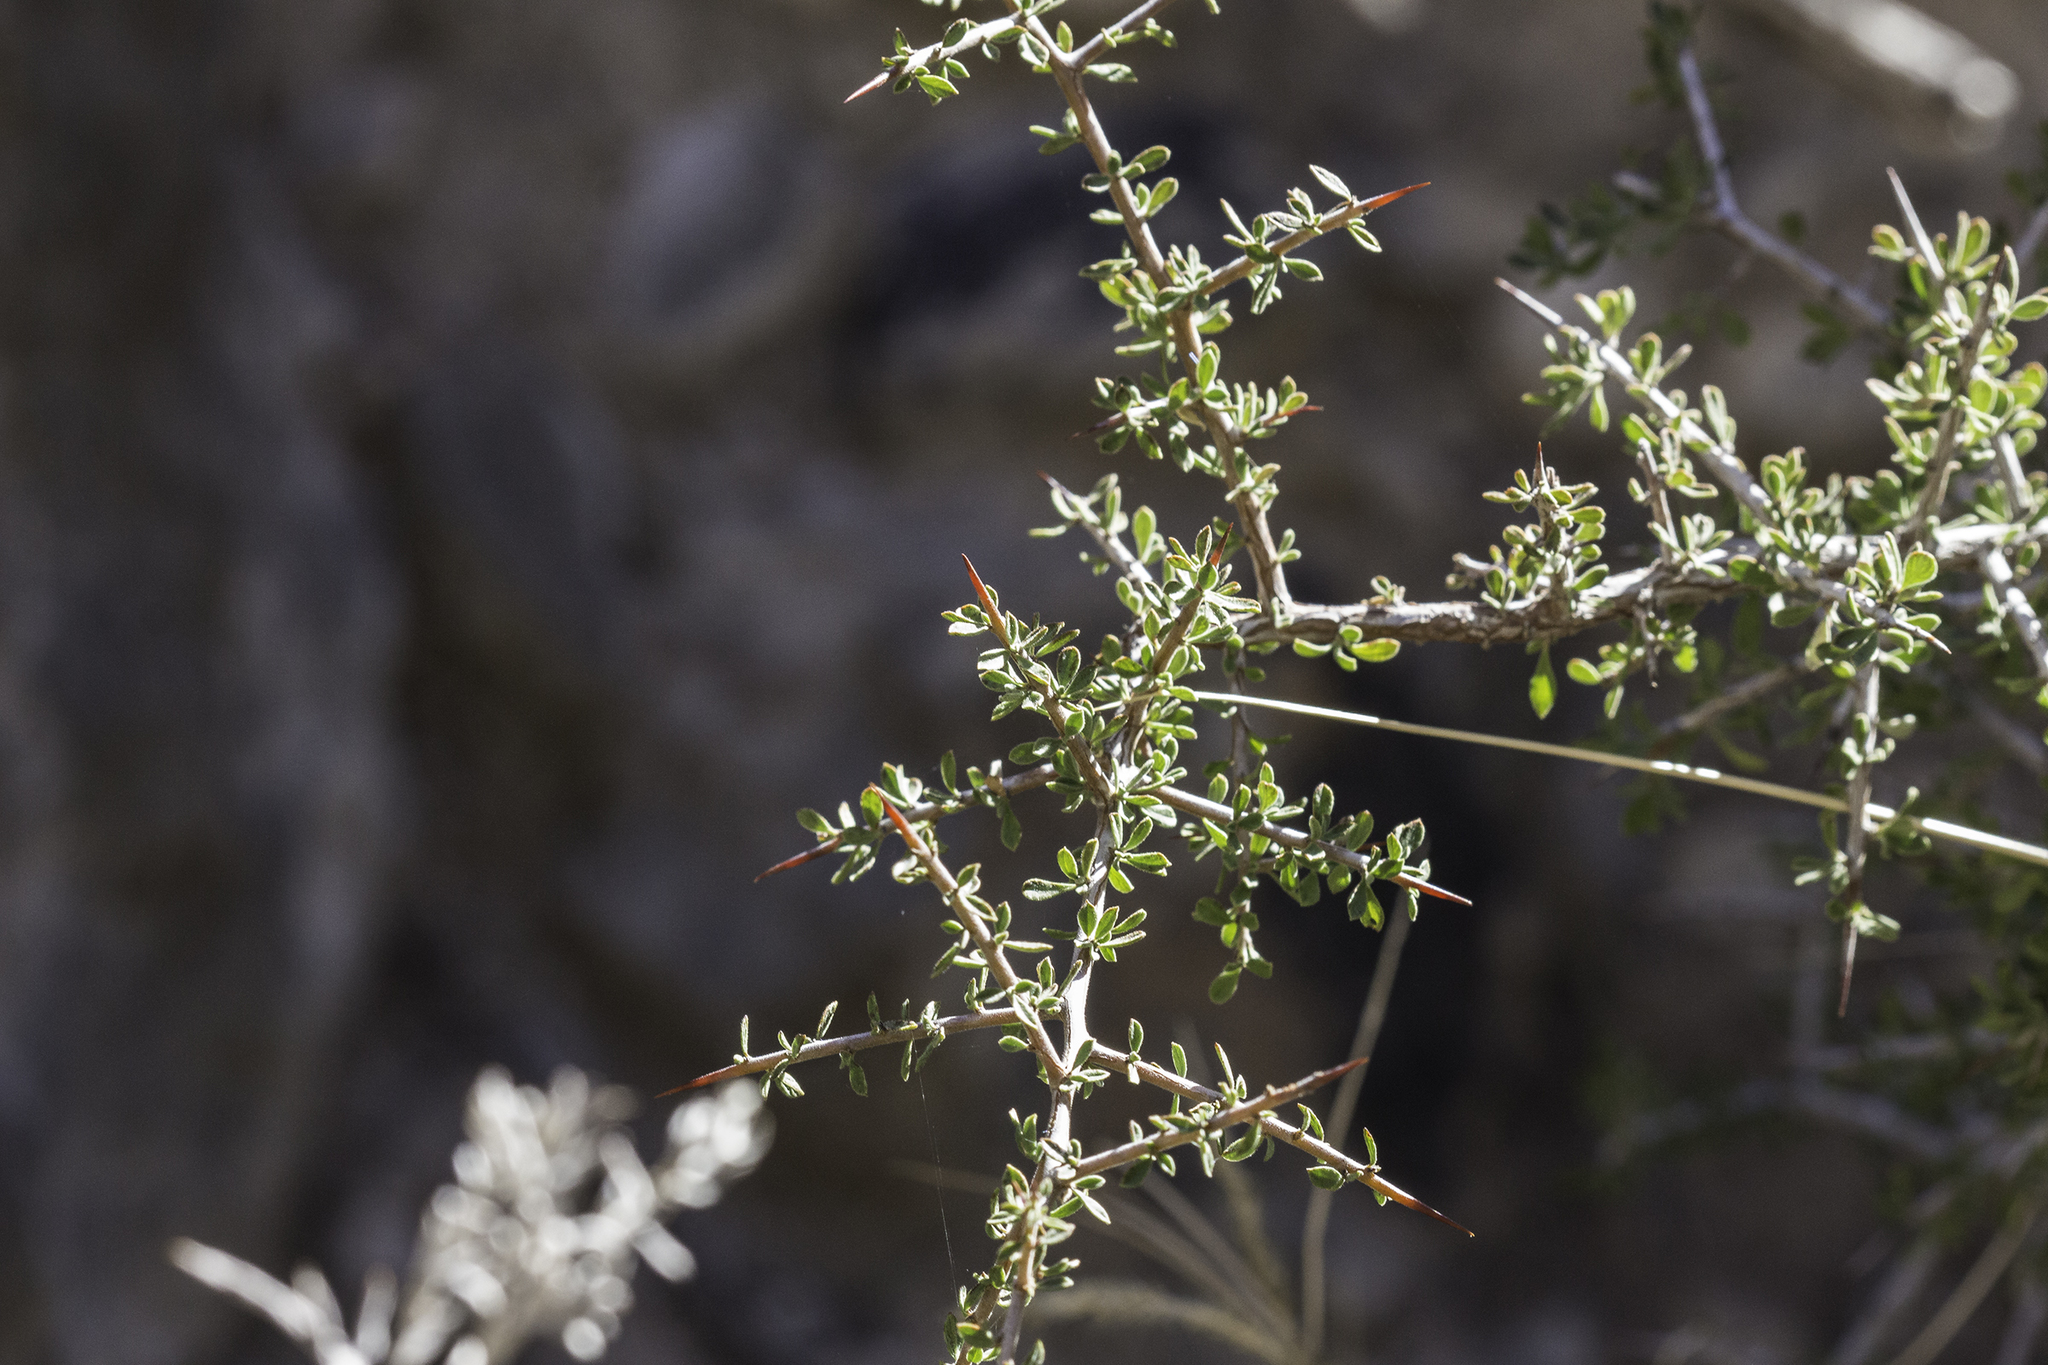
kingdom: Plantae
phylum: Tracheophyta
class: Magnoliopsida
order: Rosales
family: Rhamnaceae
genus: Condalia
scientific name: Condalia warnockii
